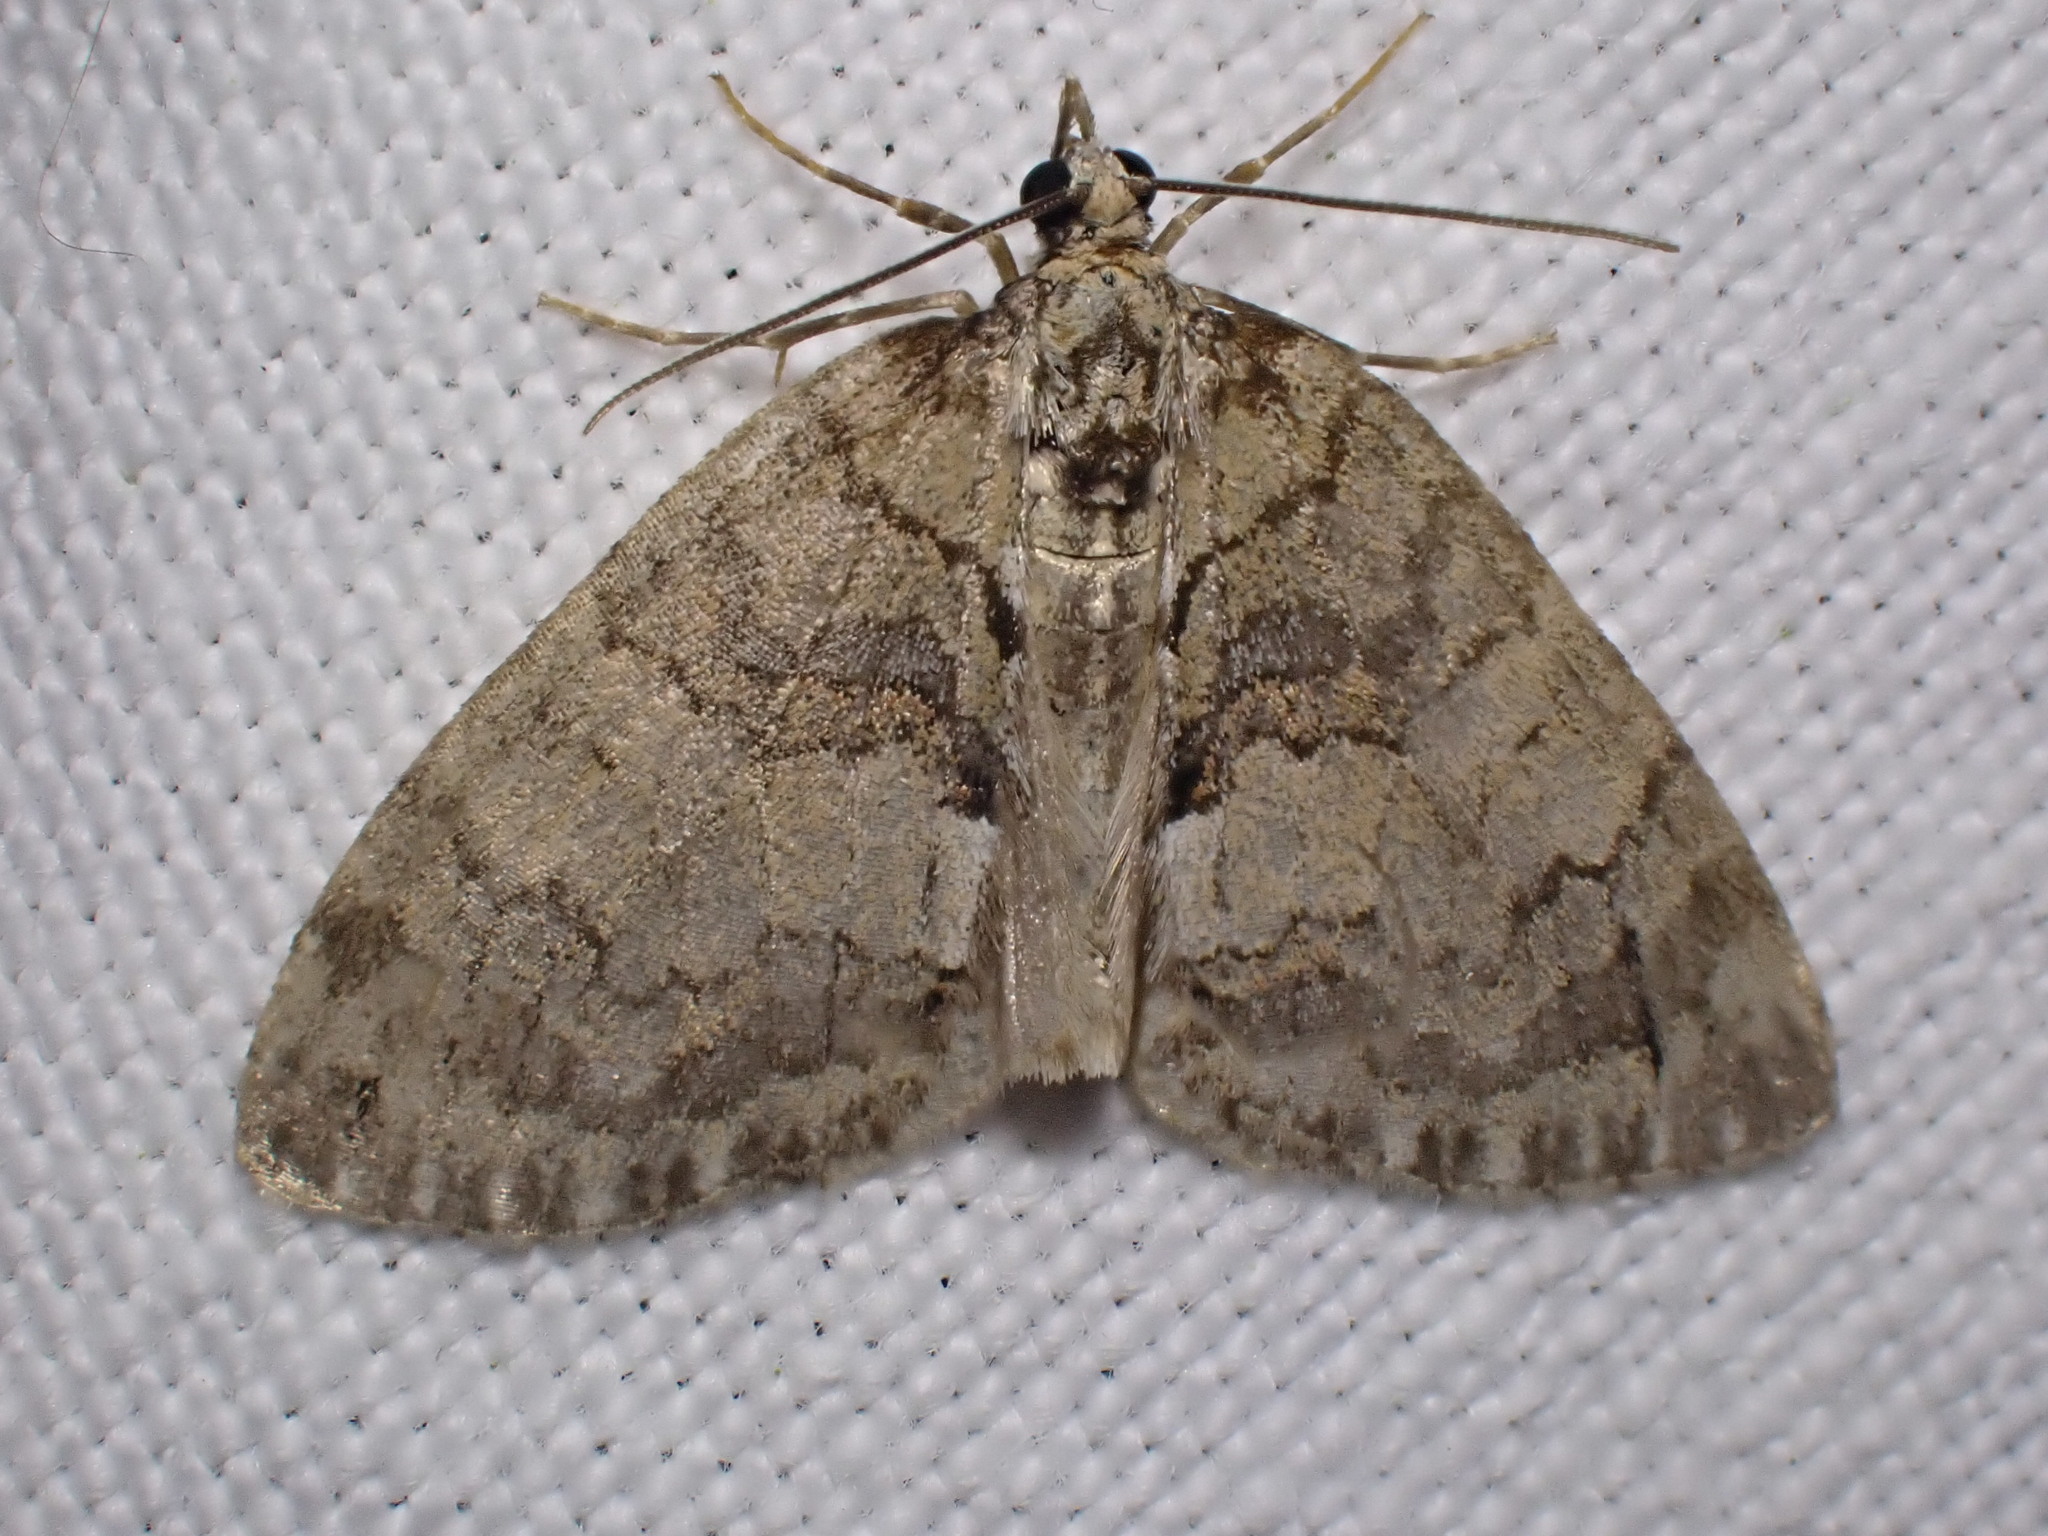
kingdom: Animalia
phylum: Arthropoda
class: Insecta
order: Lepidoptera
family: Geometridae
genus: Hydriomena
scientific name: Hydriomena impluviata
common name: May highflyer
